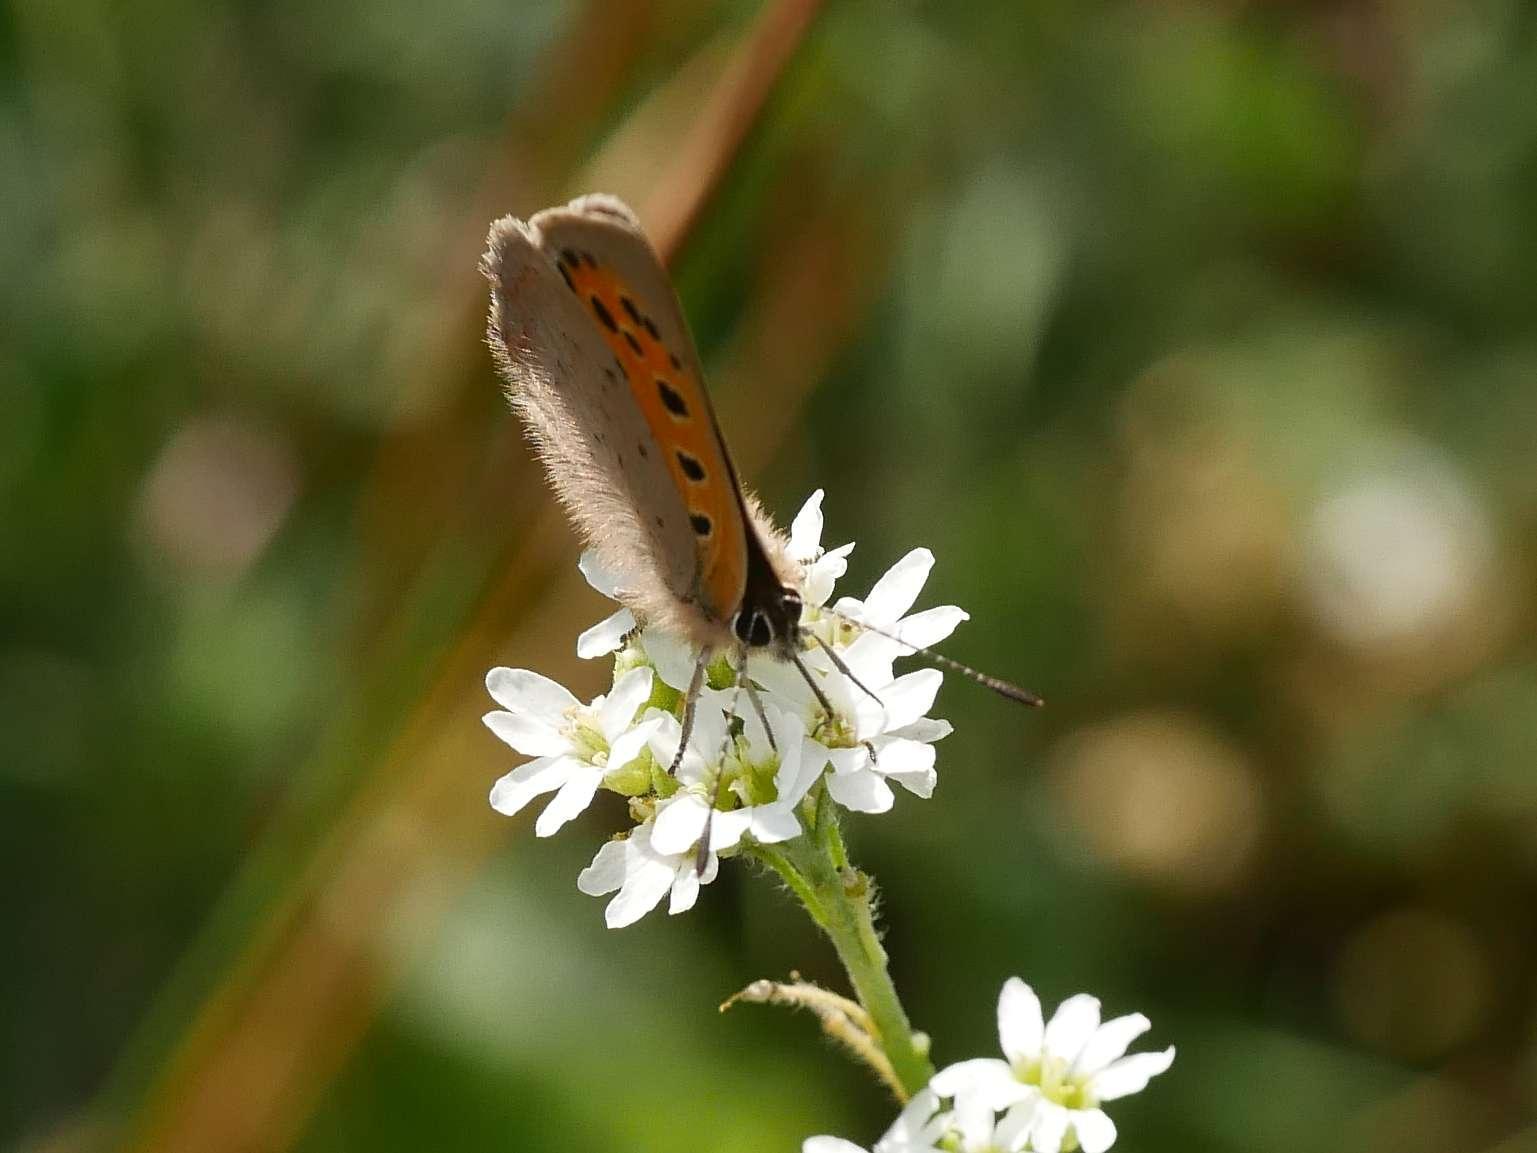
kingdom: Animalia
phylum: Arthropoda
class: Insecta
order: Lepidoptera
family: Lycaenidae
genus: Lycaena
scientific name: Lycaena phlaeas
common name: Small copper
